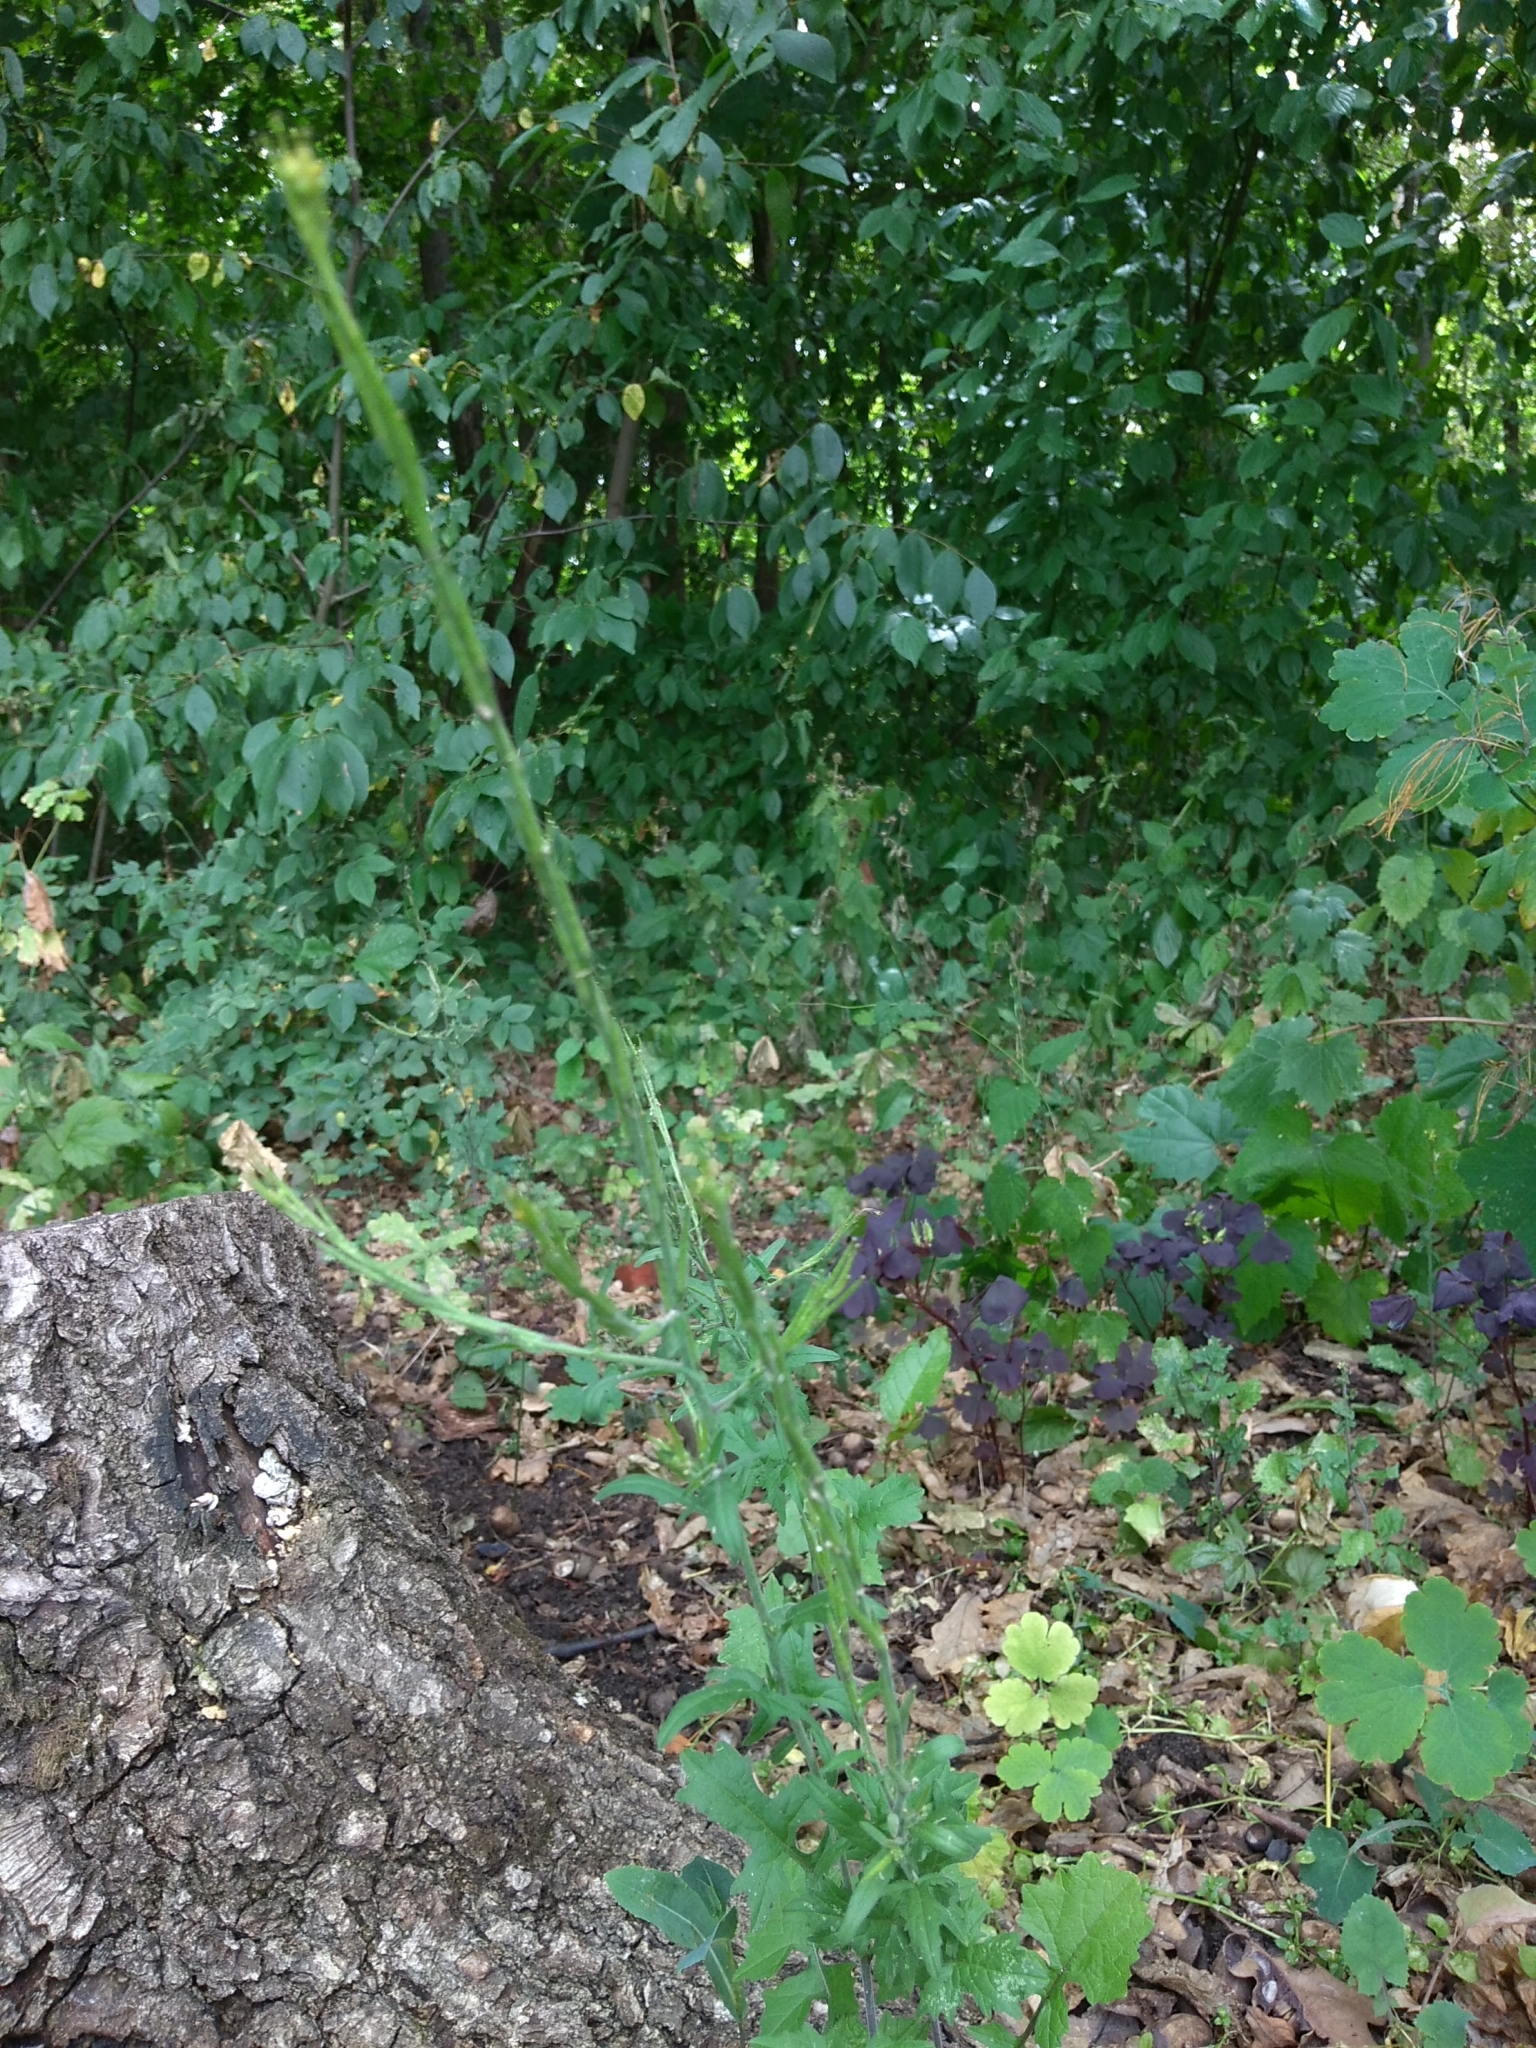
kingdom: Plantae
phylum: Tracheophyta
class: Magnoliopsida
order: Brassicales
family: Brassicaceae
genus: Sisymbrium
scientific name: Sisymbrium officinale
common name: Hedge mustard
